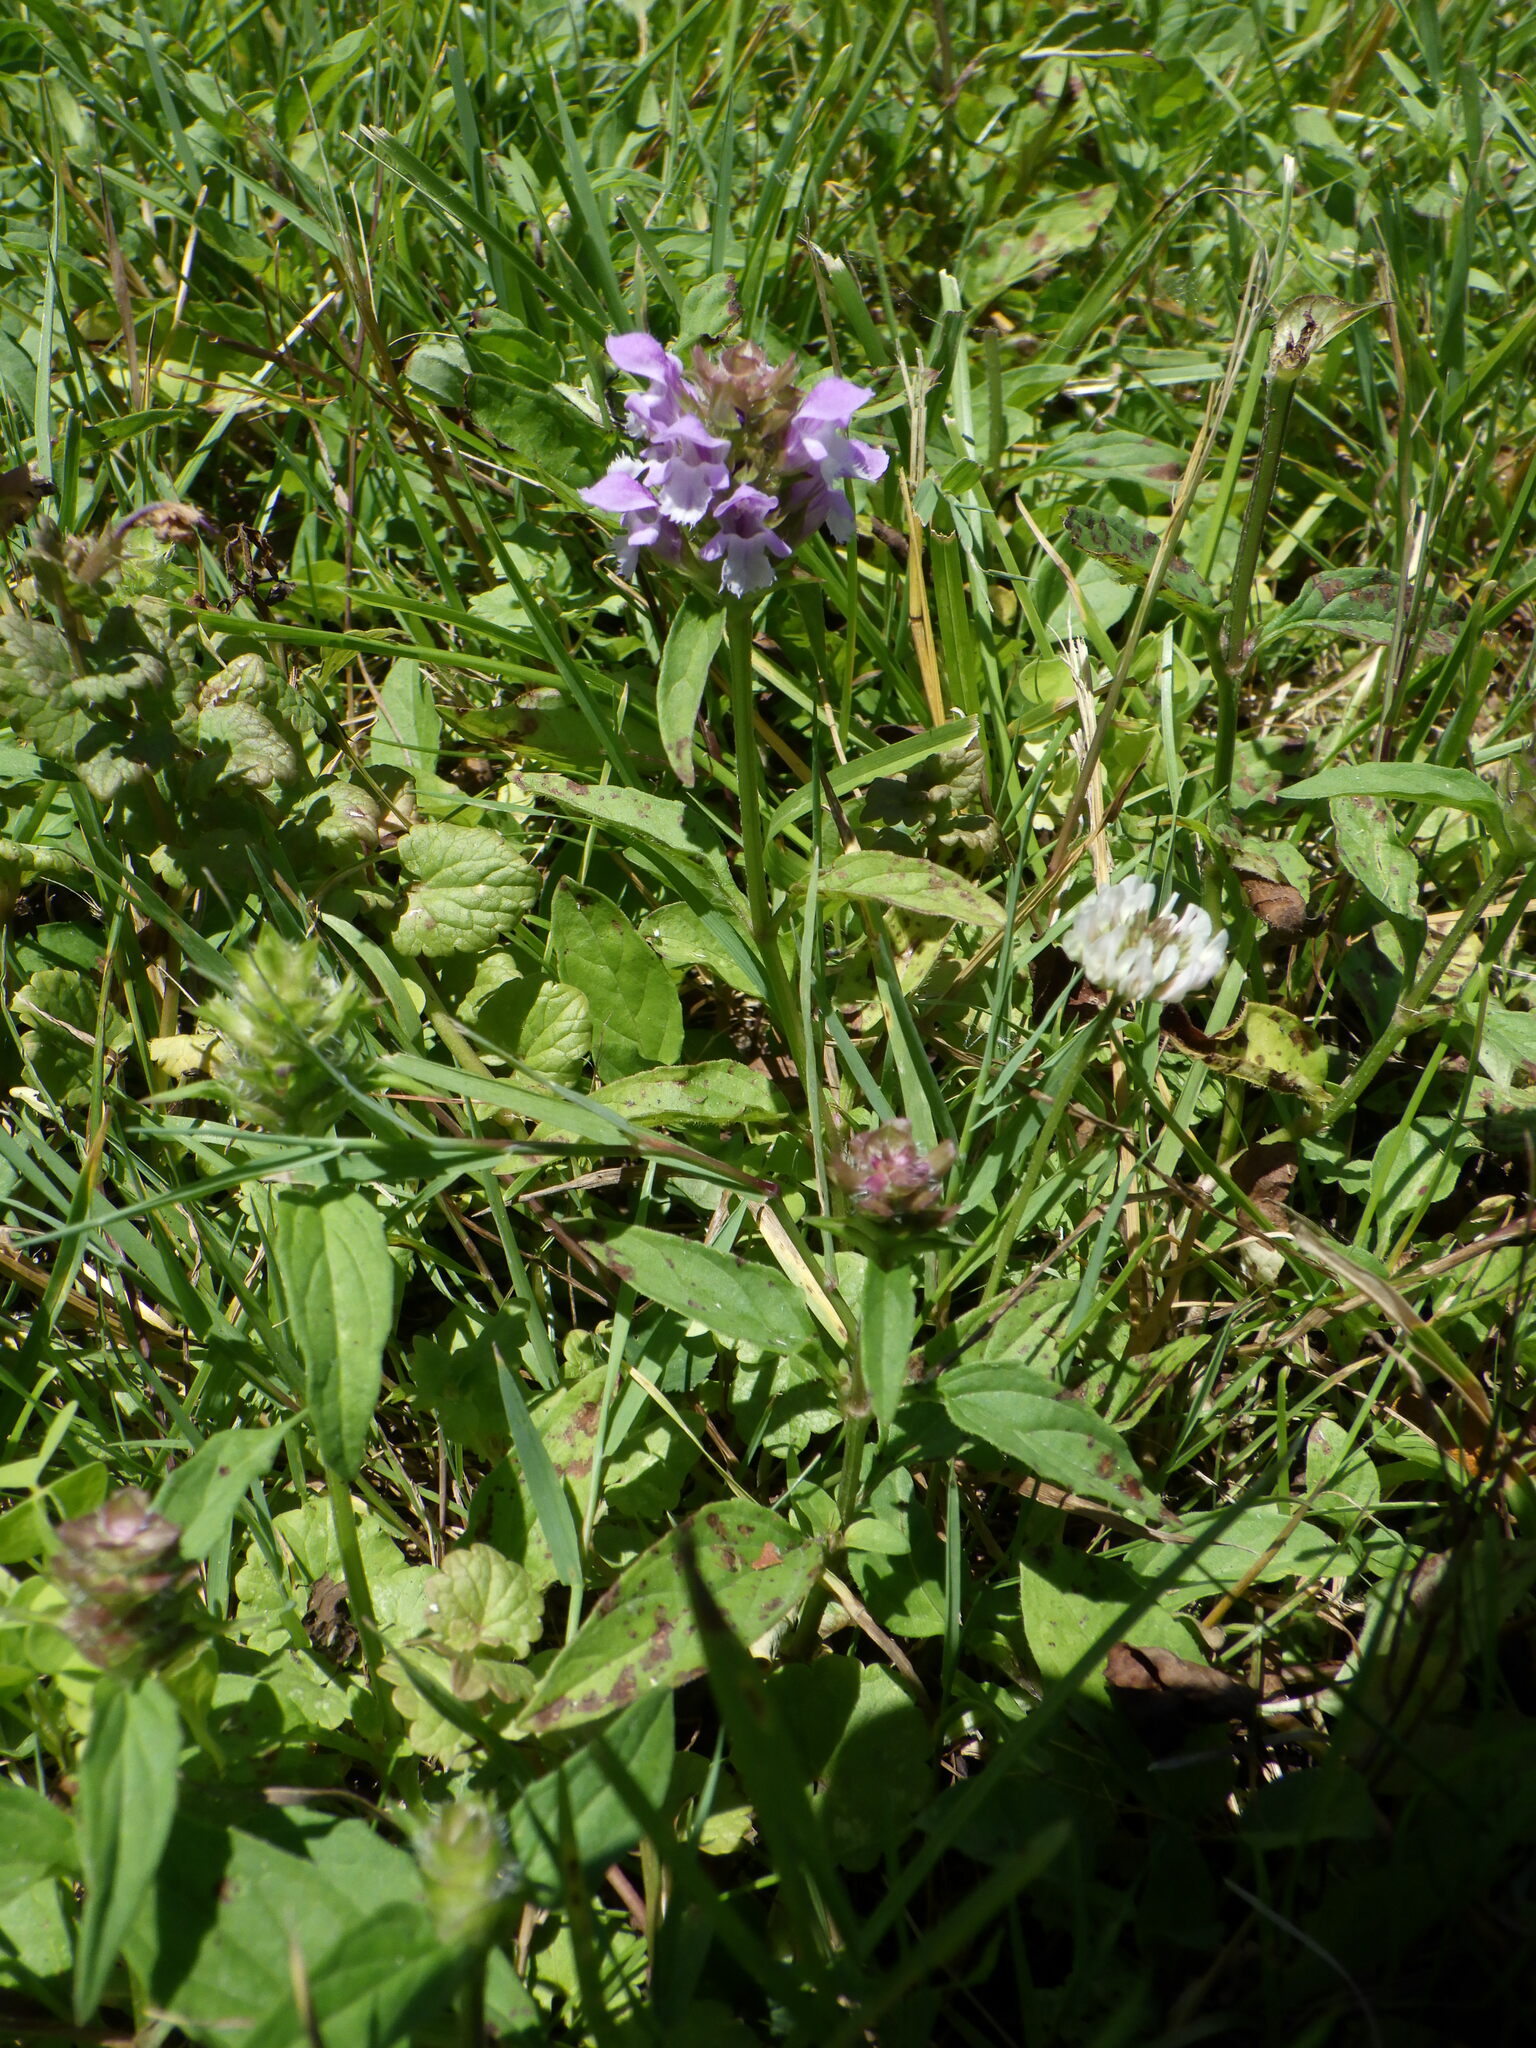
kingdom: Plantae
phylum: Tracheophyta
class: Magnoliopsida
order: Lamiales
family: Lamiaceae
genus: Prunella
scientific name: Prunella vulgaris
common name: Heal-all
